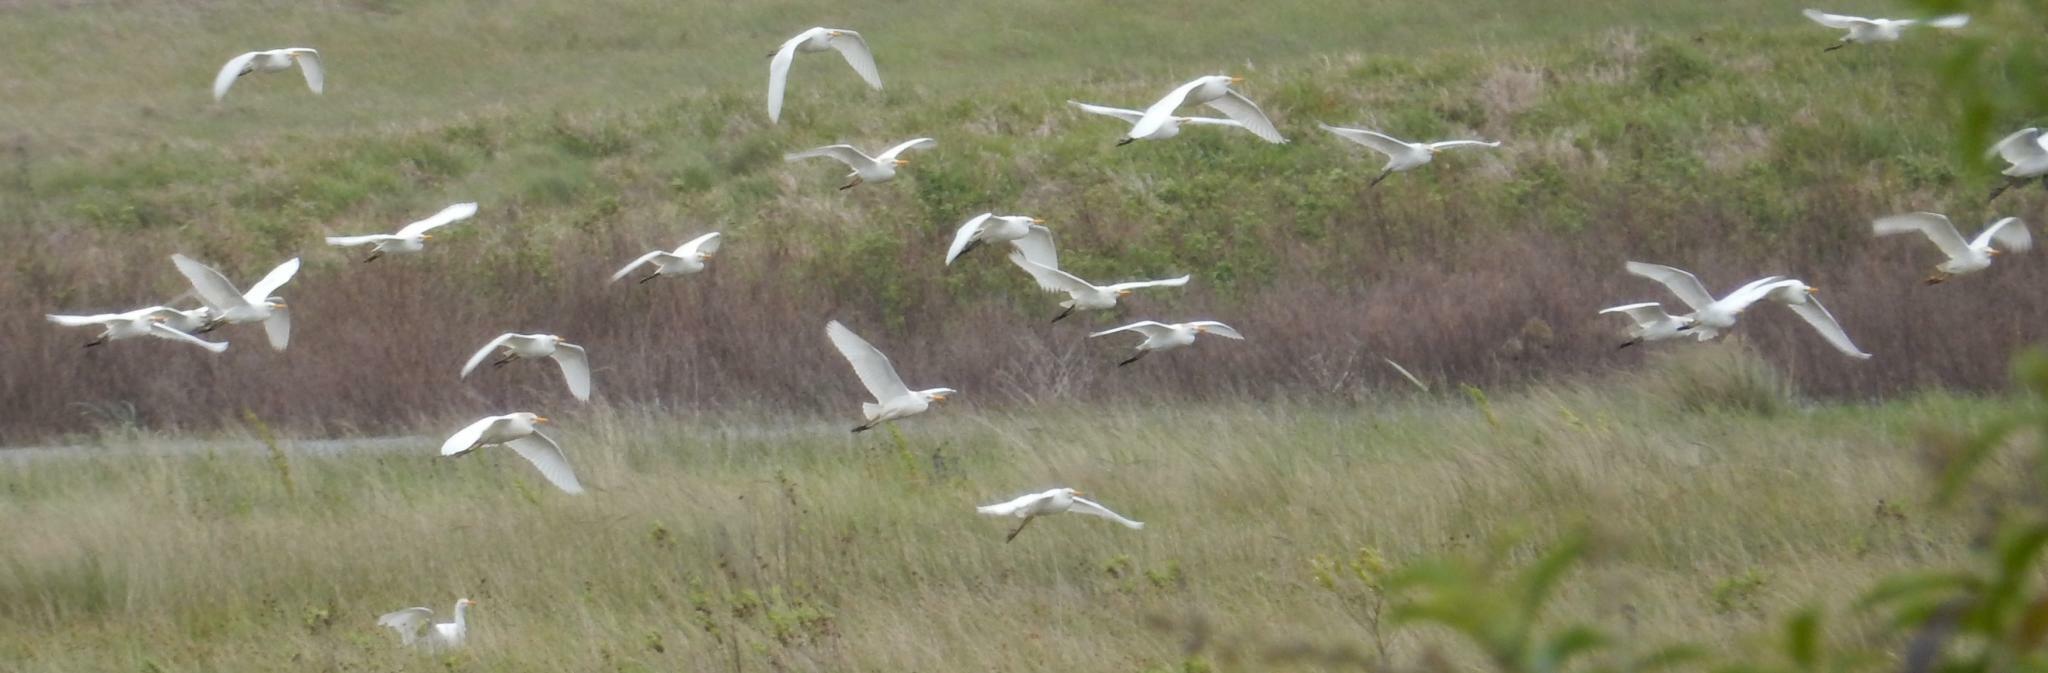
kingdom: Animalia
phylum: Chordata
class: Aves
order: Pelecaniformes
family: Ardeidae
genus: Bubulcus
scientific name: Bubulcus ibis
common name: Cattle egret
